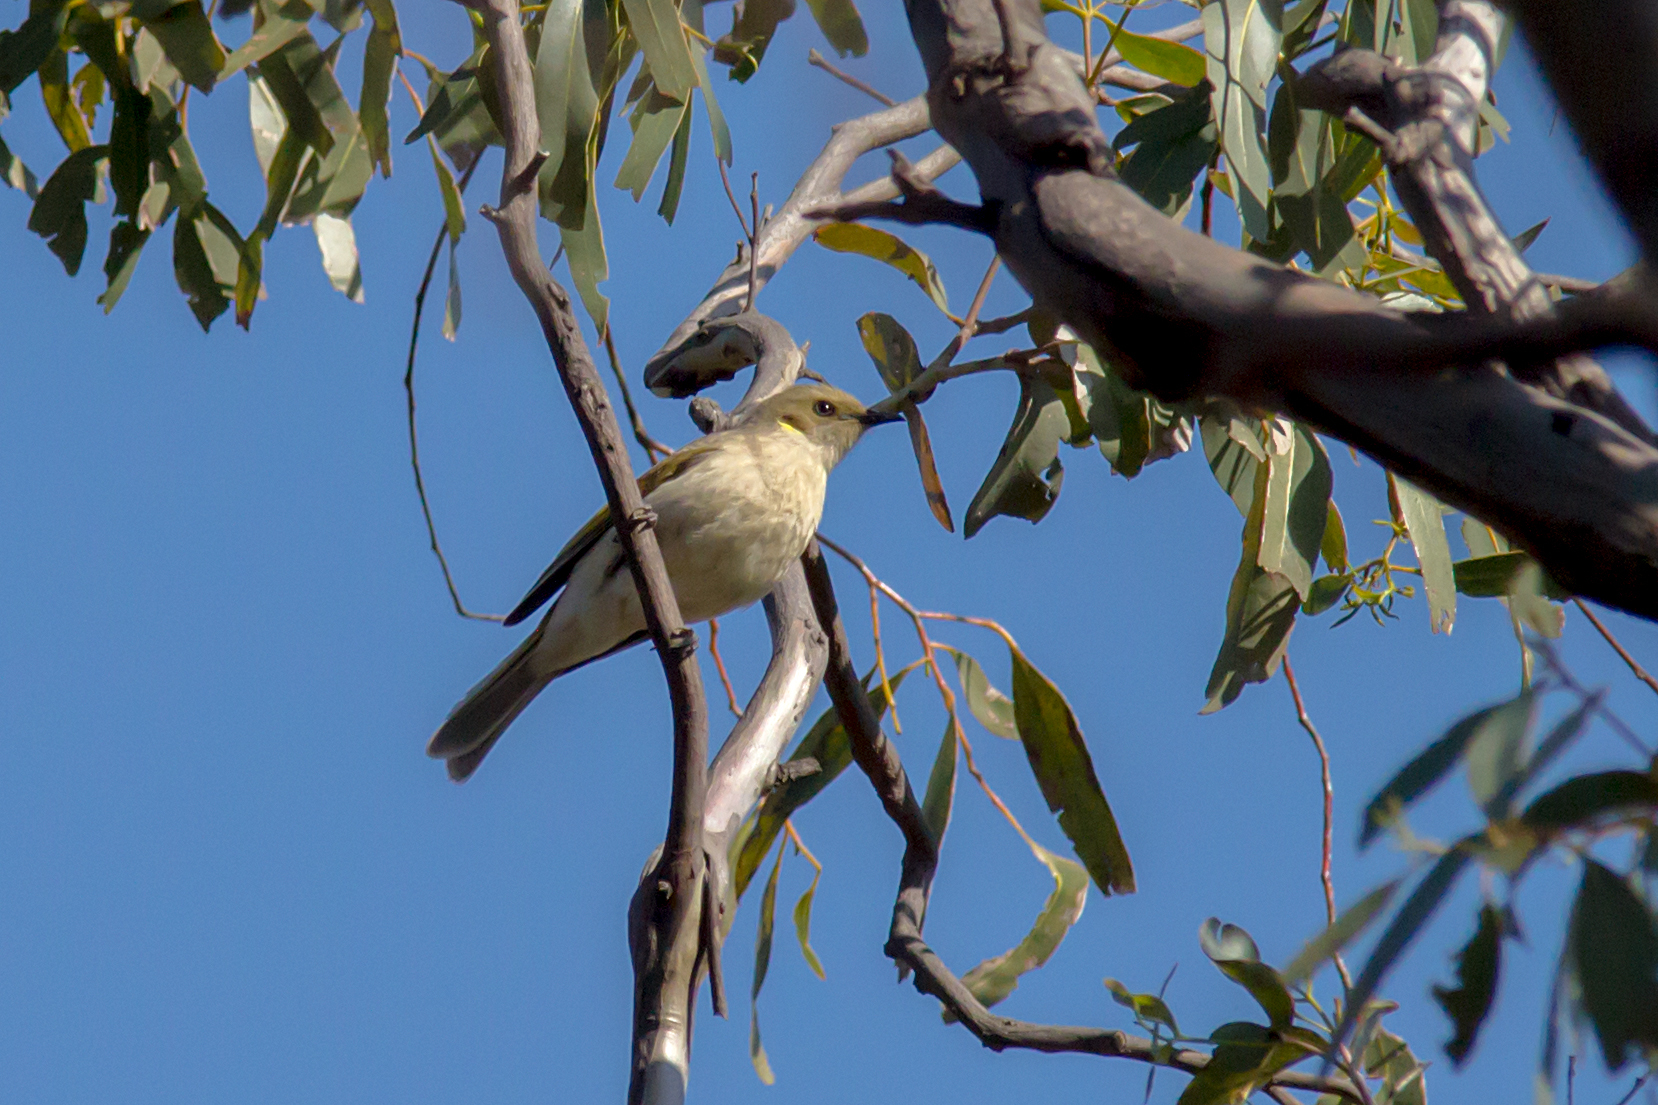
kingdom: Animalia
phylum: Chordata
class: Aves
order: Passeriformes
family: Meliphagidae
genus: Ptilotula
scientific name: Ptilotula fusca
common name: Fuscous honeyeater
